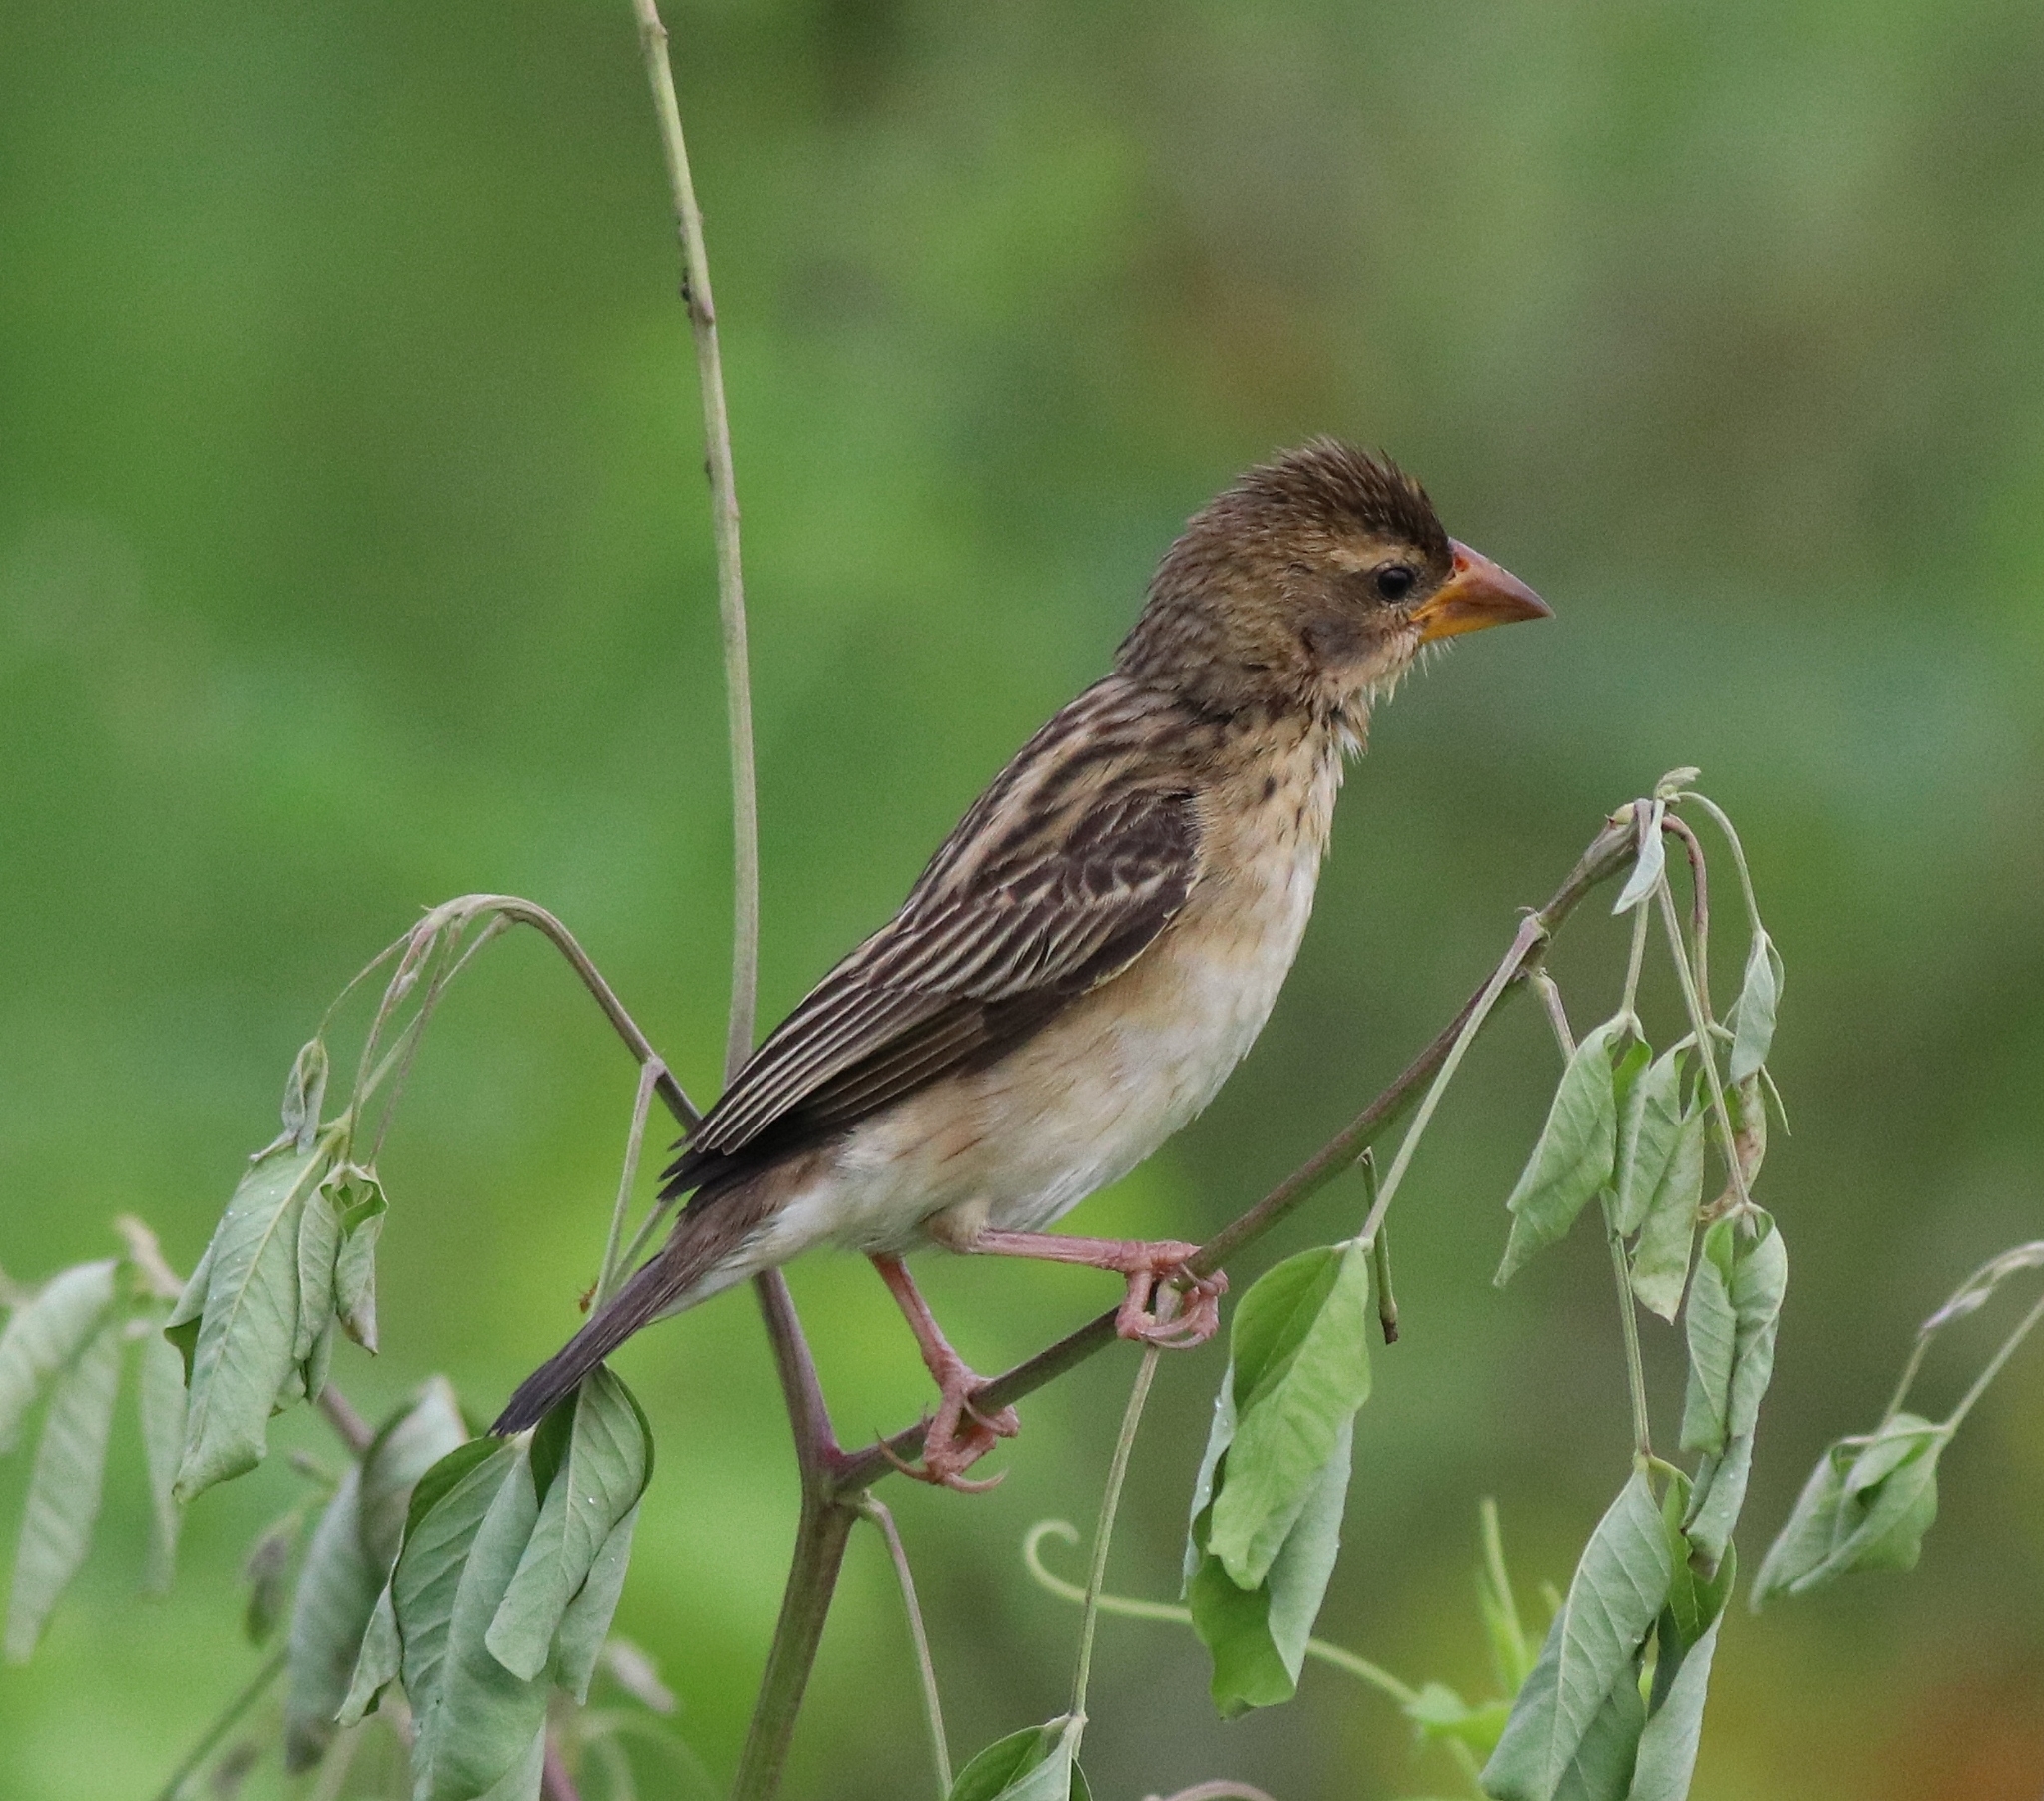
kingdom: Animalia
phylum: Chordata
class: Aves
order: Passeriformes
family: Ploceidae
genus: Ploceus
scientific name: Ploceus philippinus
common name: Baya weaver
